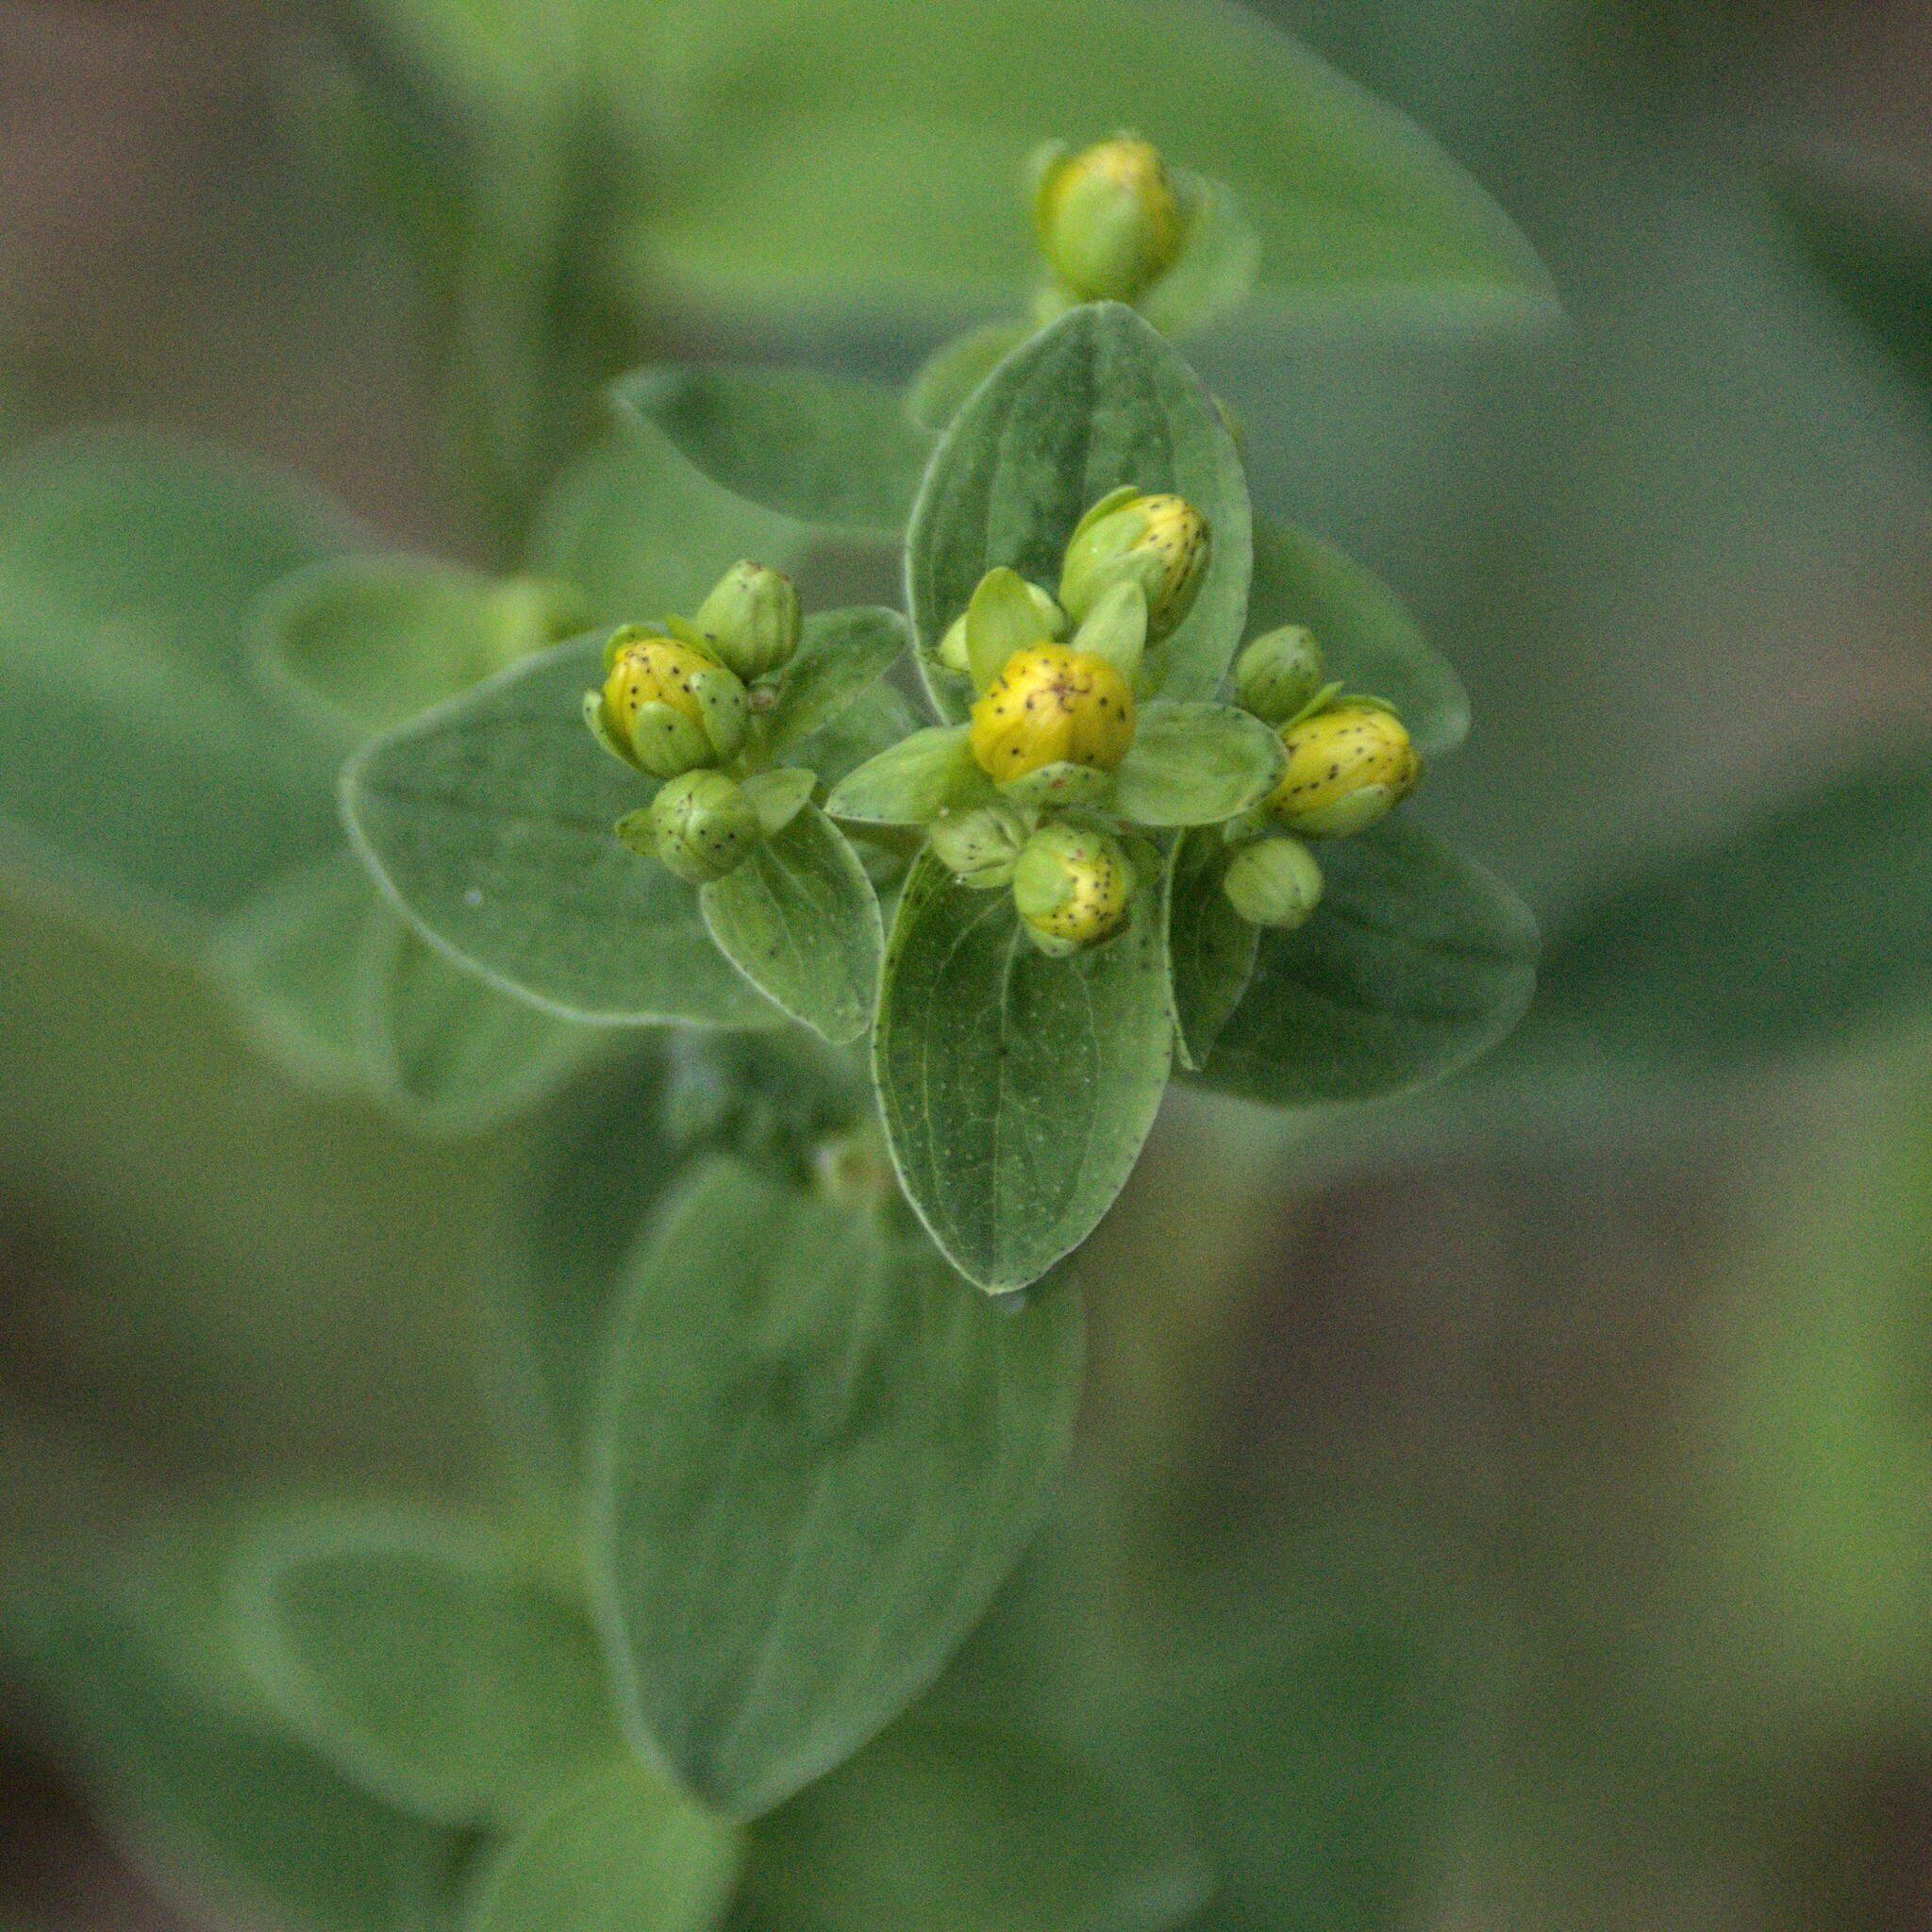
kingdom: Plantae
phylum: Tracheophyta
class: Magnoliopsida
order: Malpighiales
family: Hypericaceae
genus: Hypericum
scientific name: Hypericum maculatum
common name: Imperforate st. john's-wort
